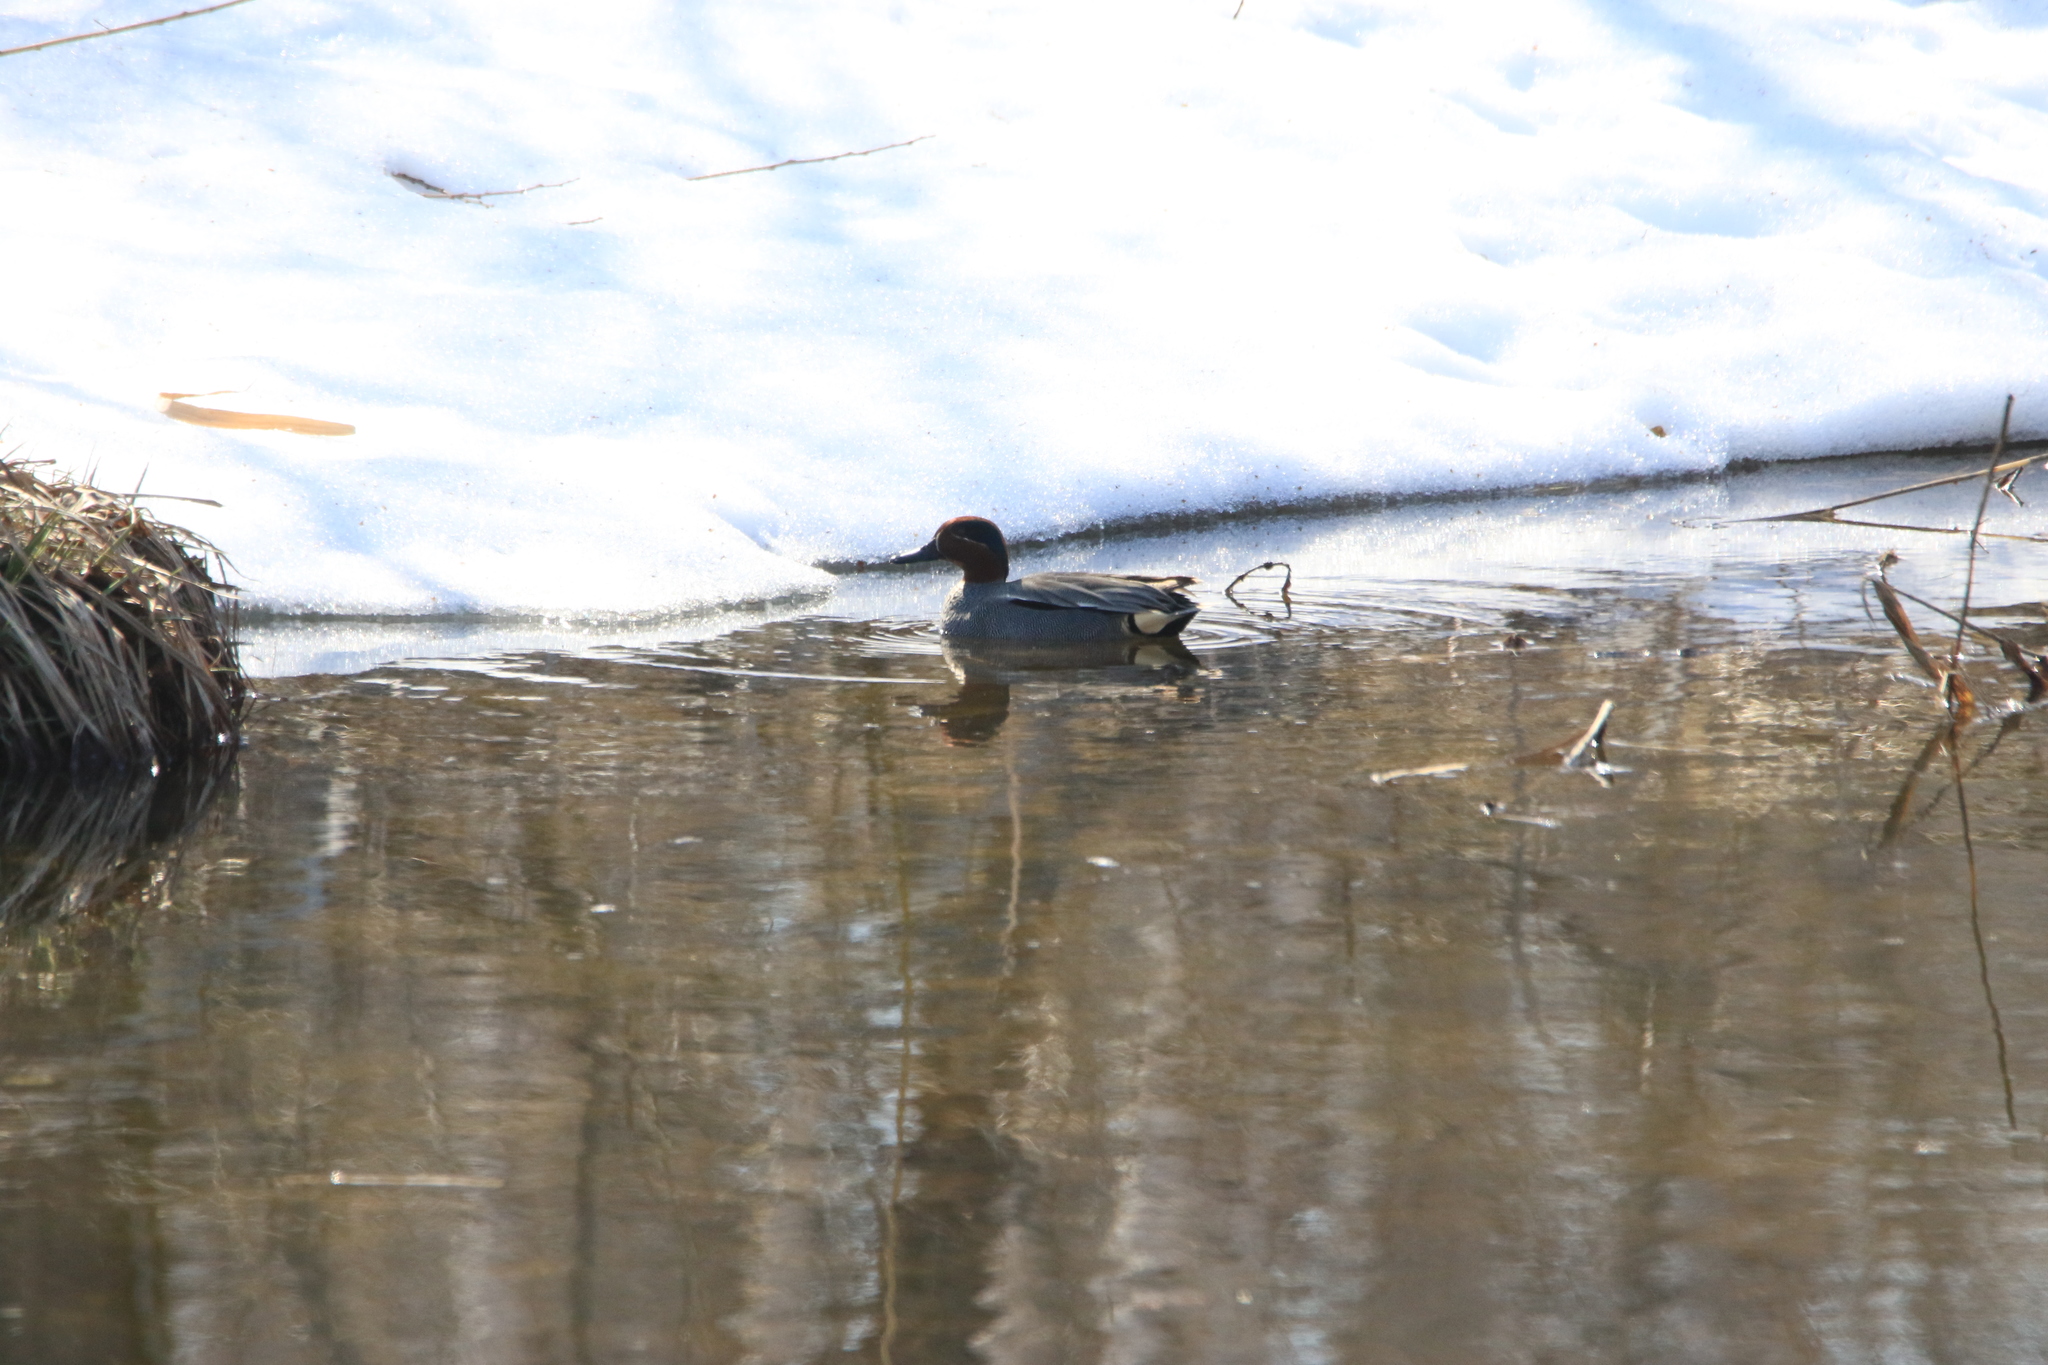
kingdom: Animalia
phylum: Chordata
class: Aves
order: Anseriformes
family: Anatidae
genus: Anas
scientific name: Anas crecca
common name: Eurasian teal
